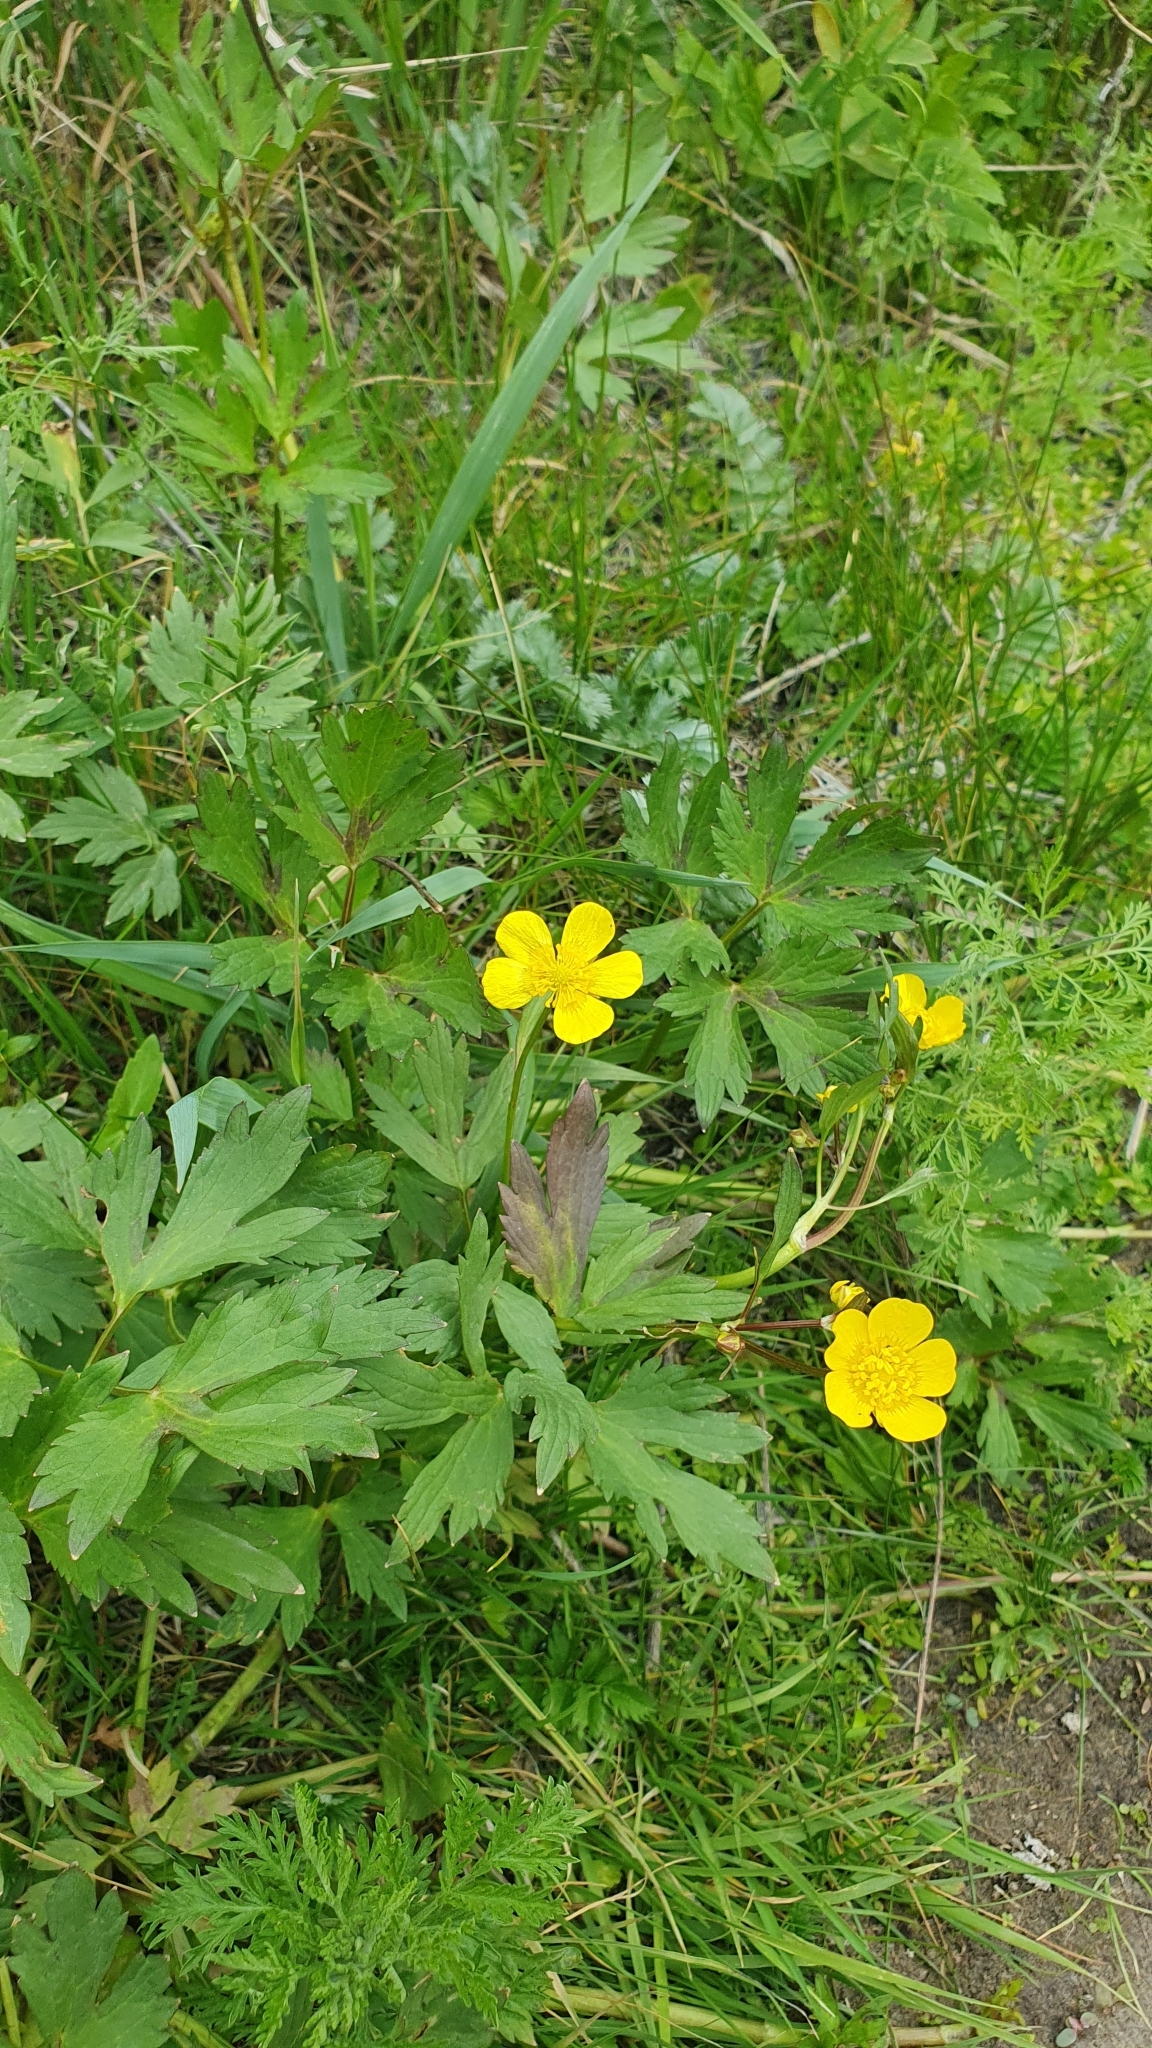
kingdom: Plantae
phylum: Tracheophyta
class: Magnoliopsida
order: Ranunculales
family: Ranunculaceae
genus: Ranunculus
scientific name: Ranunculus repens
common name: Creeping buttercup
